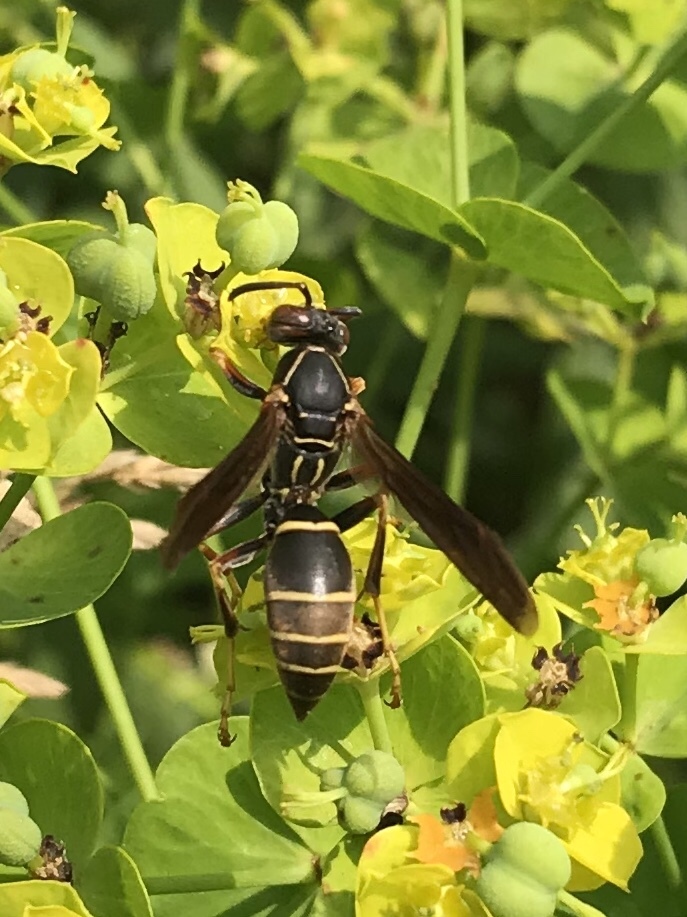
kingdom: Animalia
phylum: Arthropoda
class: Insecta
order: Hymenoptera
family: Eumenidae
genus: Polistes
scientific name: Polistes fuscatus
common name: Dark paper wasp
